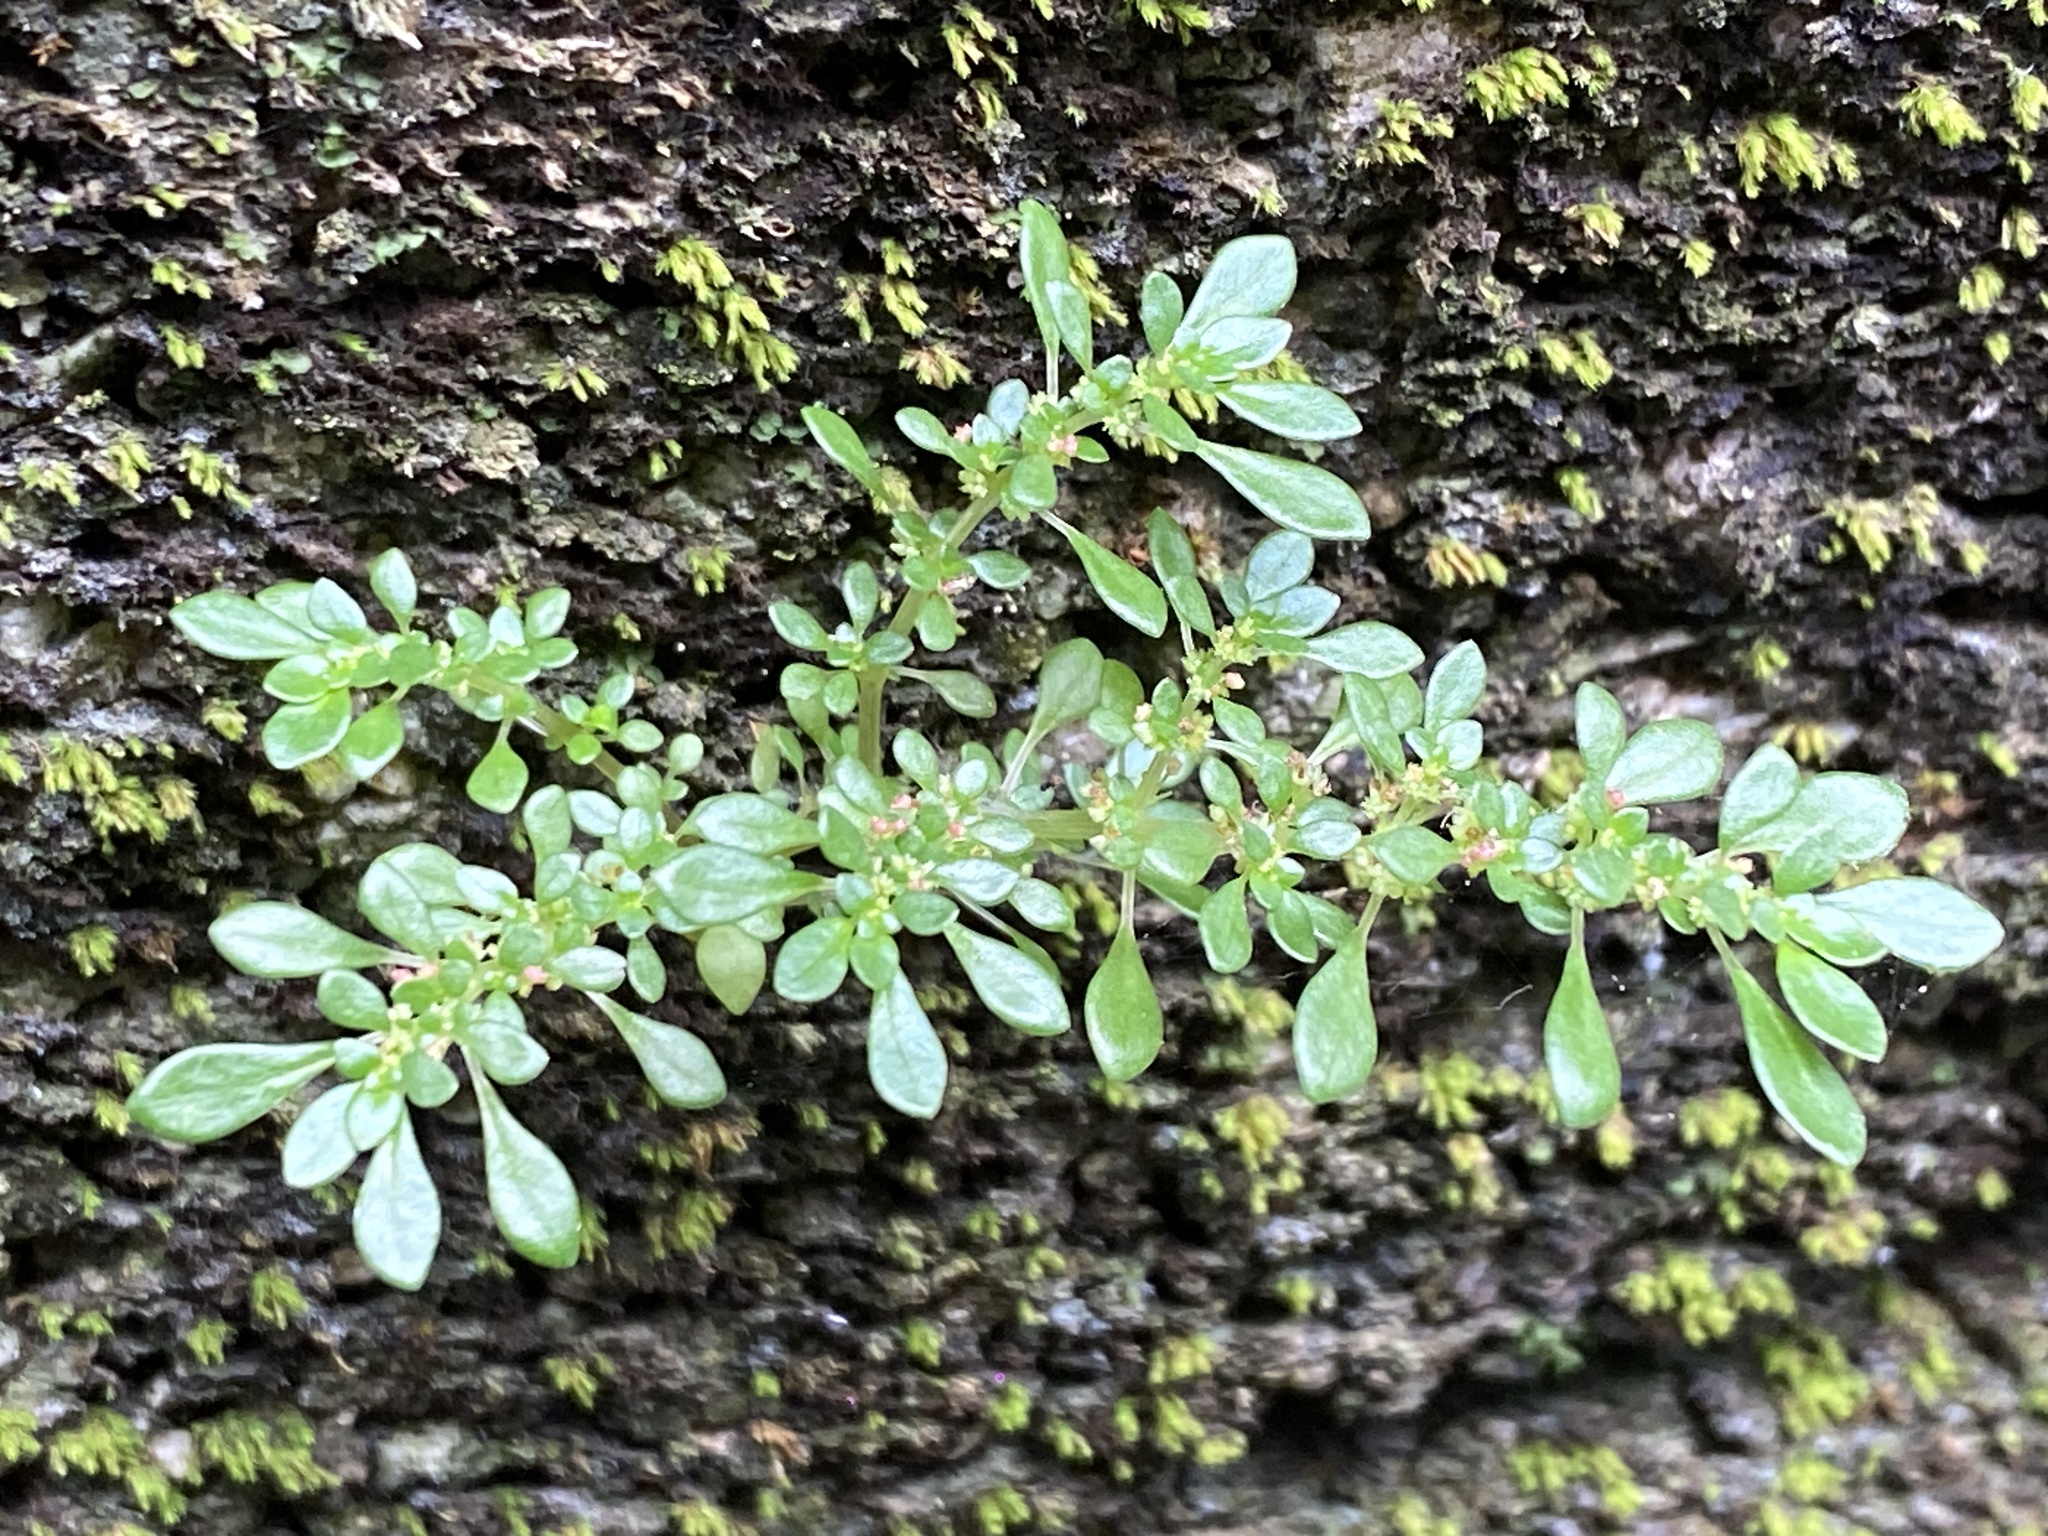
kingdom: Plantae
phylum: Tracheophyta
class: Magnoliopsida
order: Rosales
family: Urticaceae
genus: Pilea
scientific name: Pilea microphylla
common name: Artillery-plant
